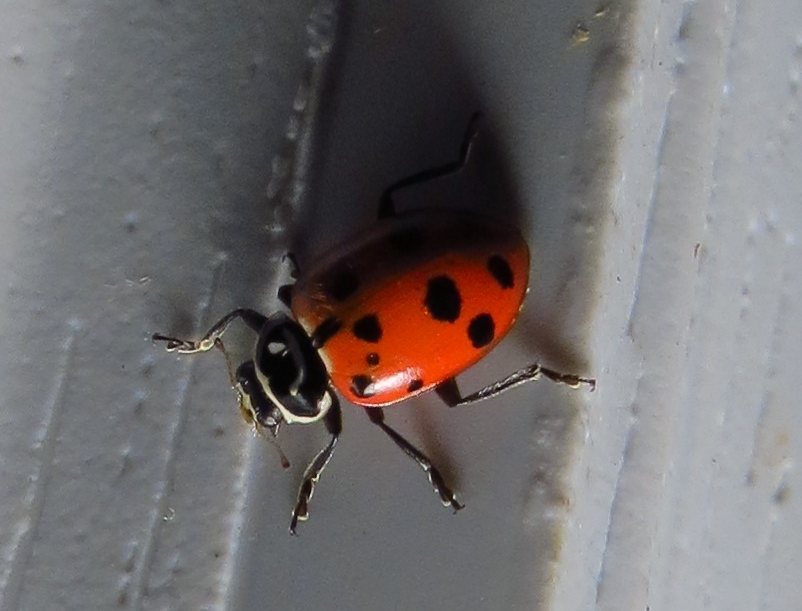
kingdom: Animalia
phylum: Arthropoda
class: Insecta
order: Coleoptera
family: Coccinellidae
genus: Hippodamia
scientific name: Hippodamia convergens
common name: Convergent lady beetle
